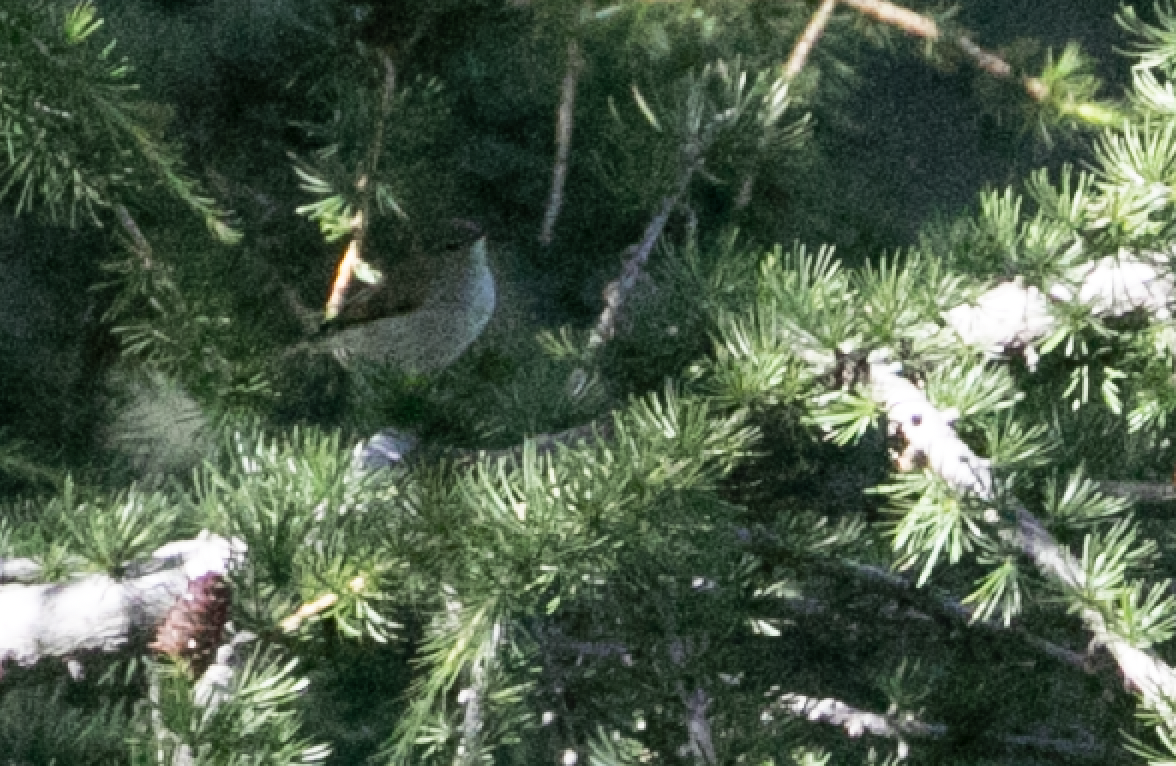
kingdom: Animalia
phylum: Chordata
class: Aves
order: Passeriformes
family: Phylloscopidae
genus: Phylloscopus
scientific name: Phylloscopus collybita
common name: Common chiffchaff
